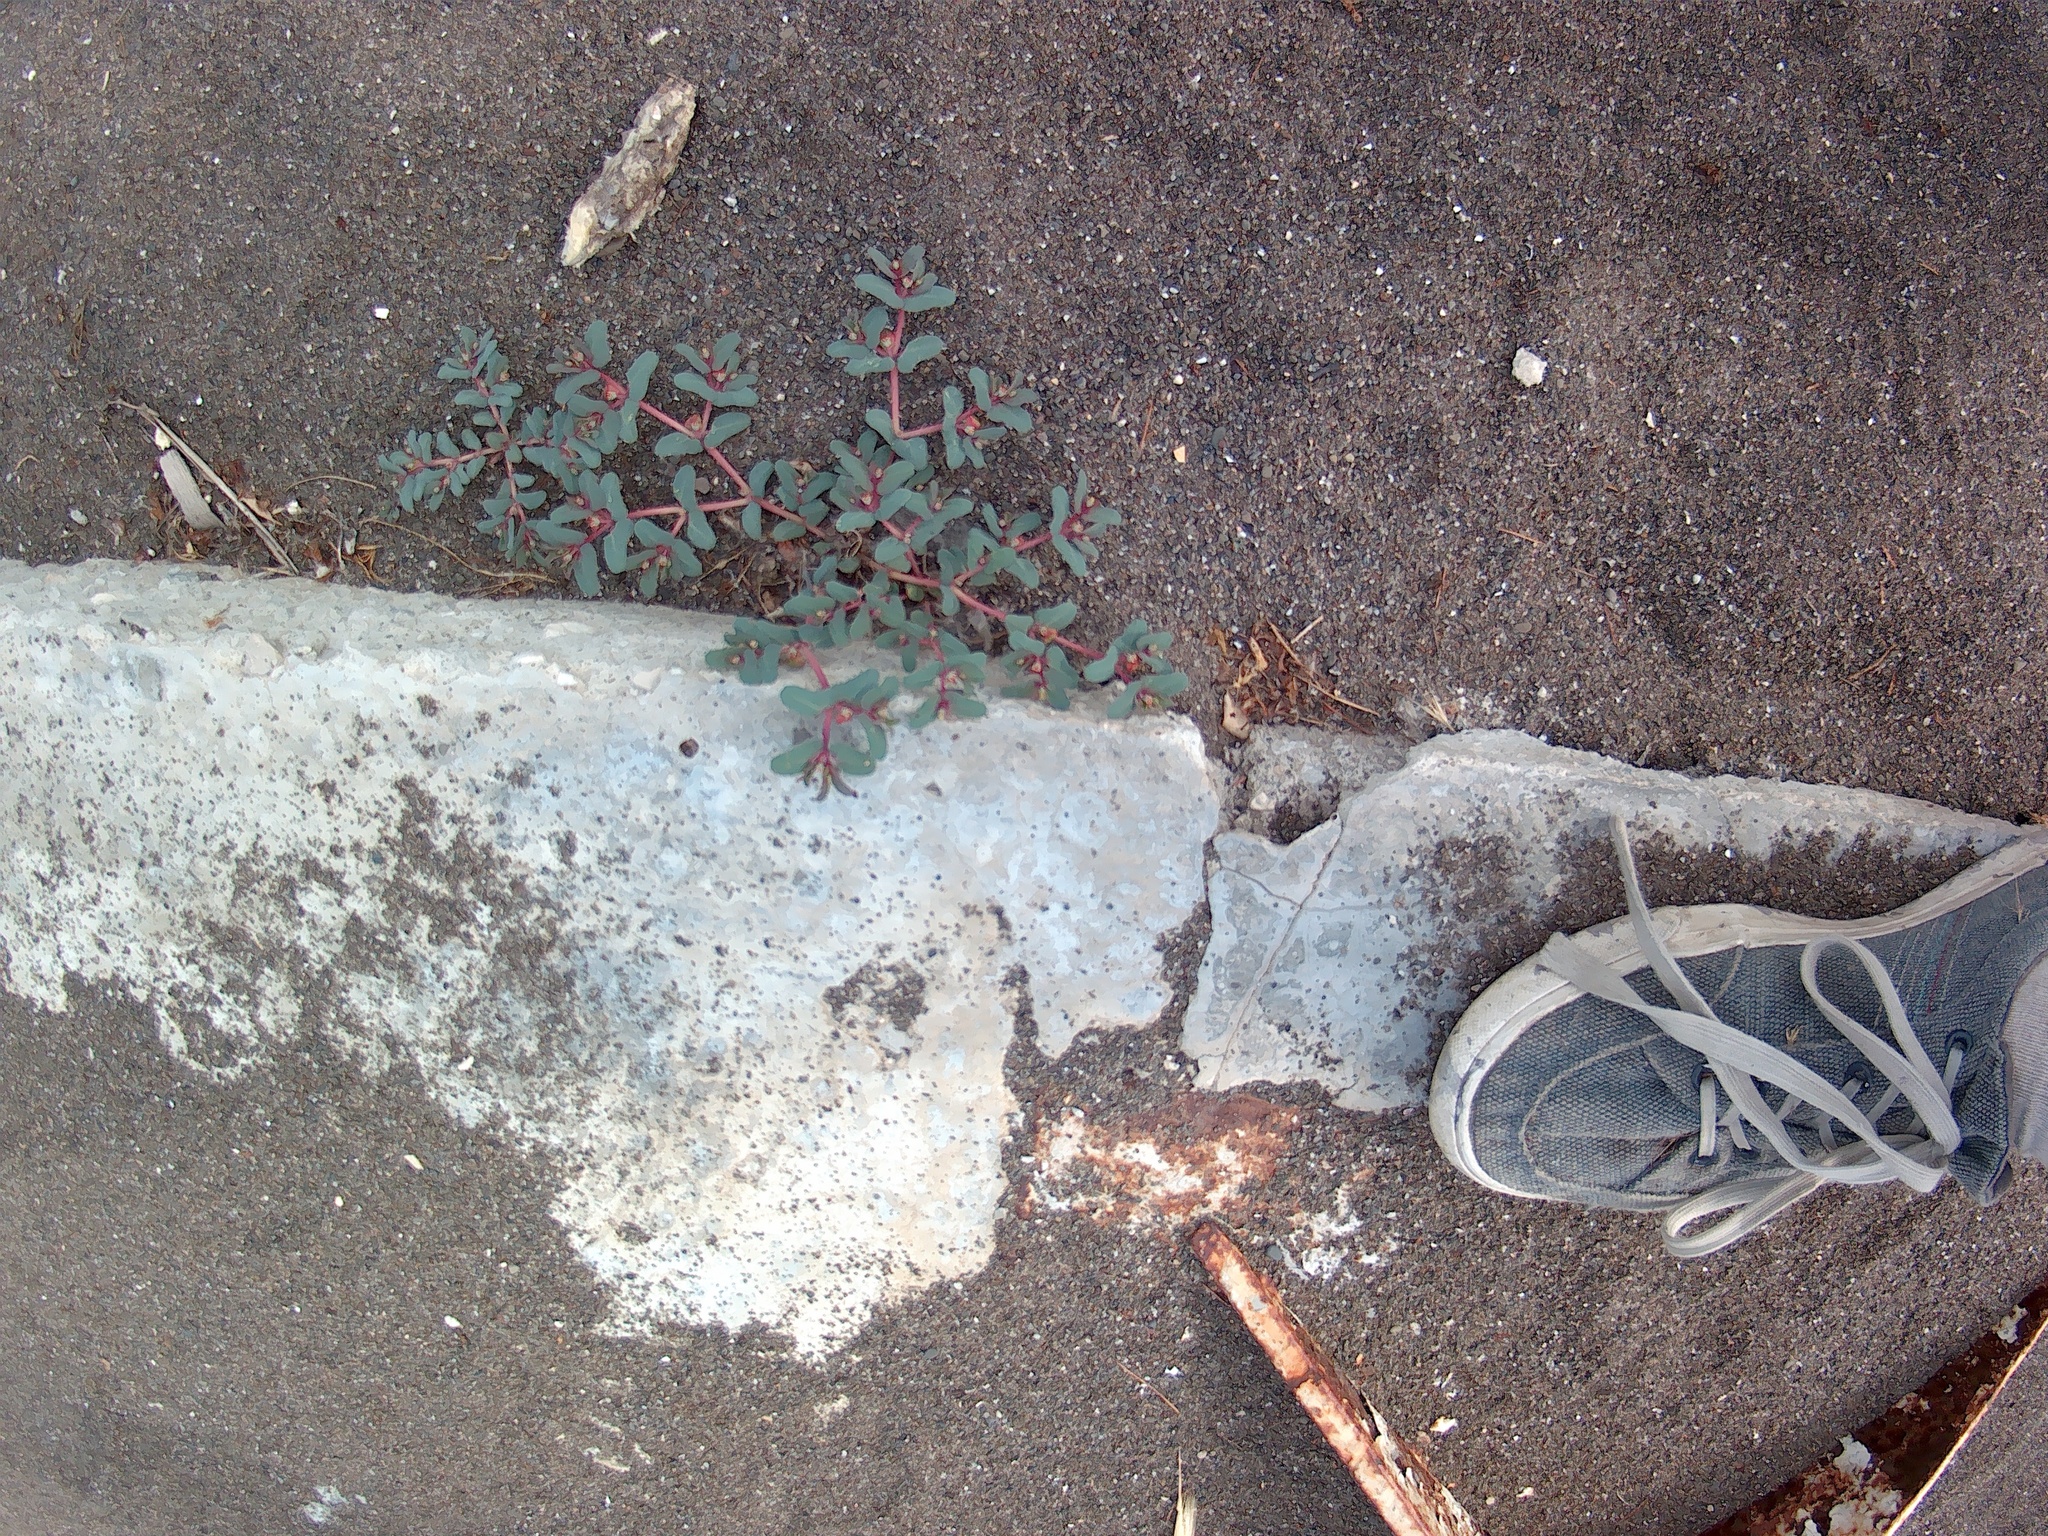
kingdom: Plantae
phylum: Tracheophyta
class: Magnoliopsida
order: Malpighiales
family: Euphorbiaceae
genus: Euphorbia
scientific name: Euphorbia peplis
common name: Purple spurge
